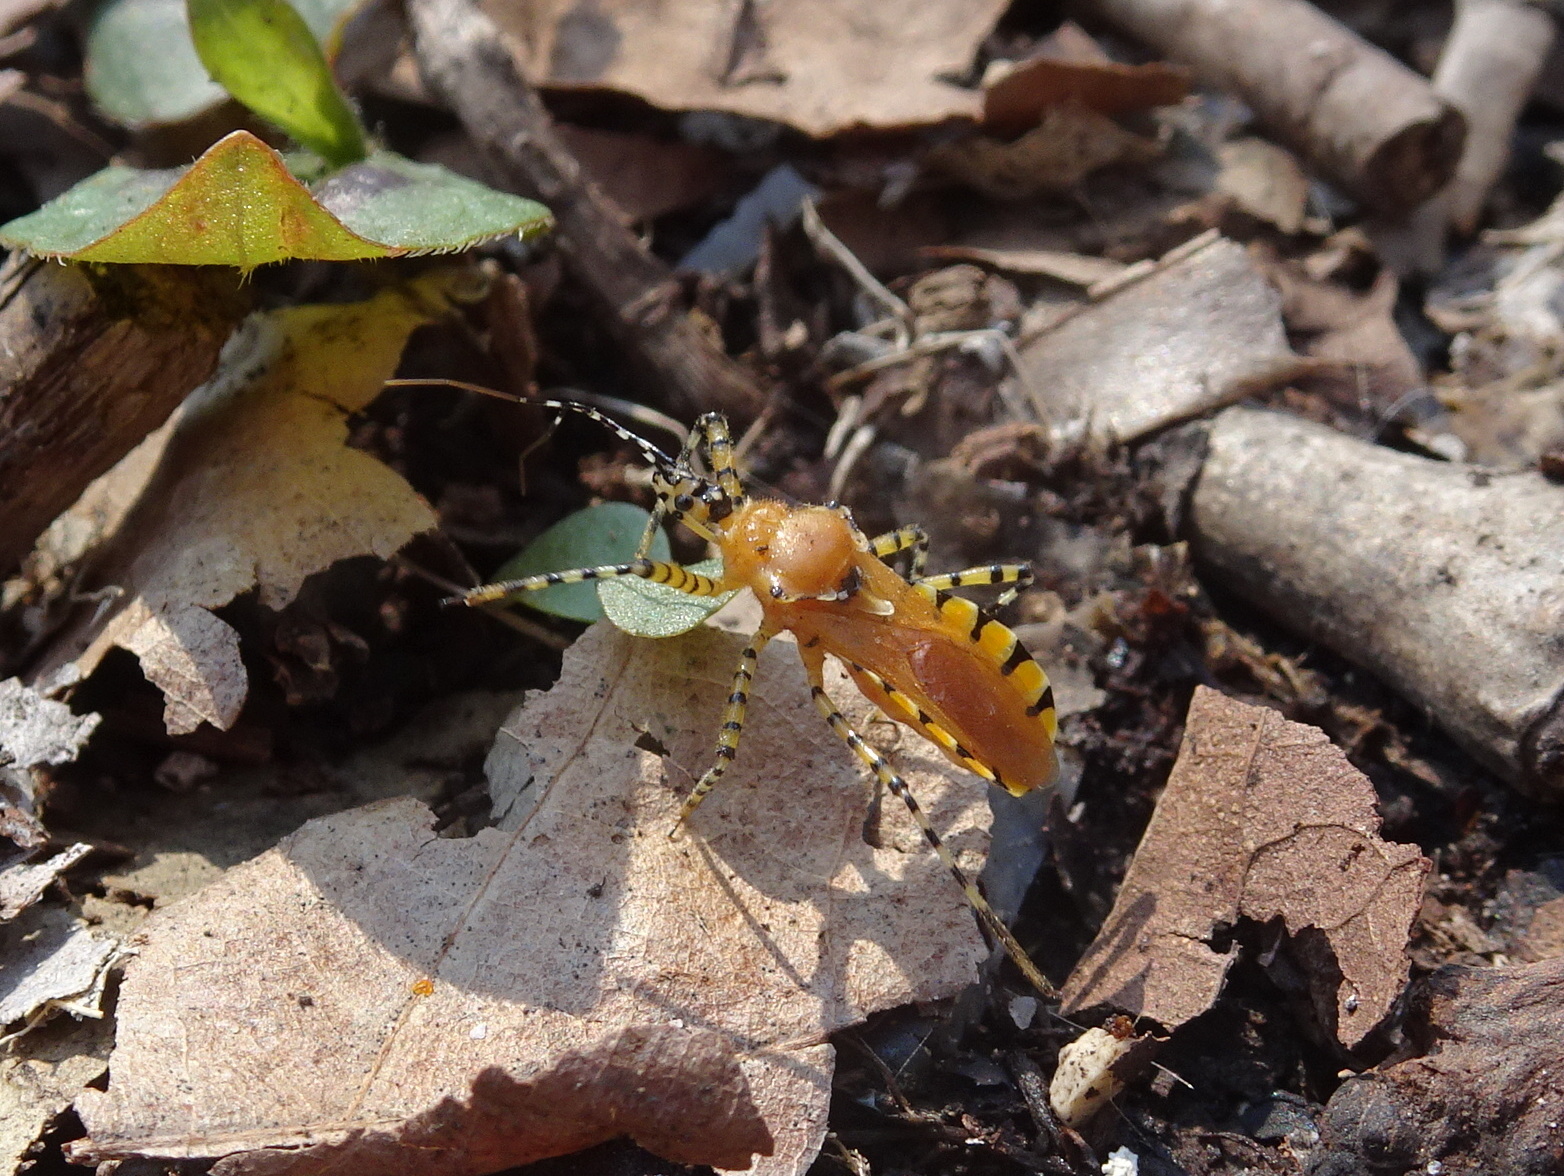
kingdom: Animalia
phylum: Arthropoda
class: Insecta
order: Hemiptera
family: Reduviidae
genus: Pselliopus
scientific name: Pselliopus barberi
